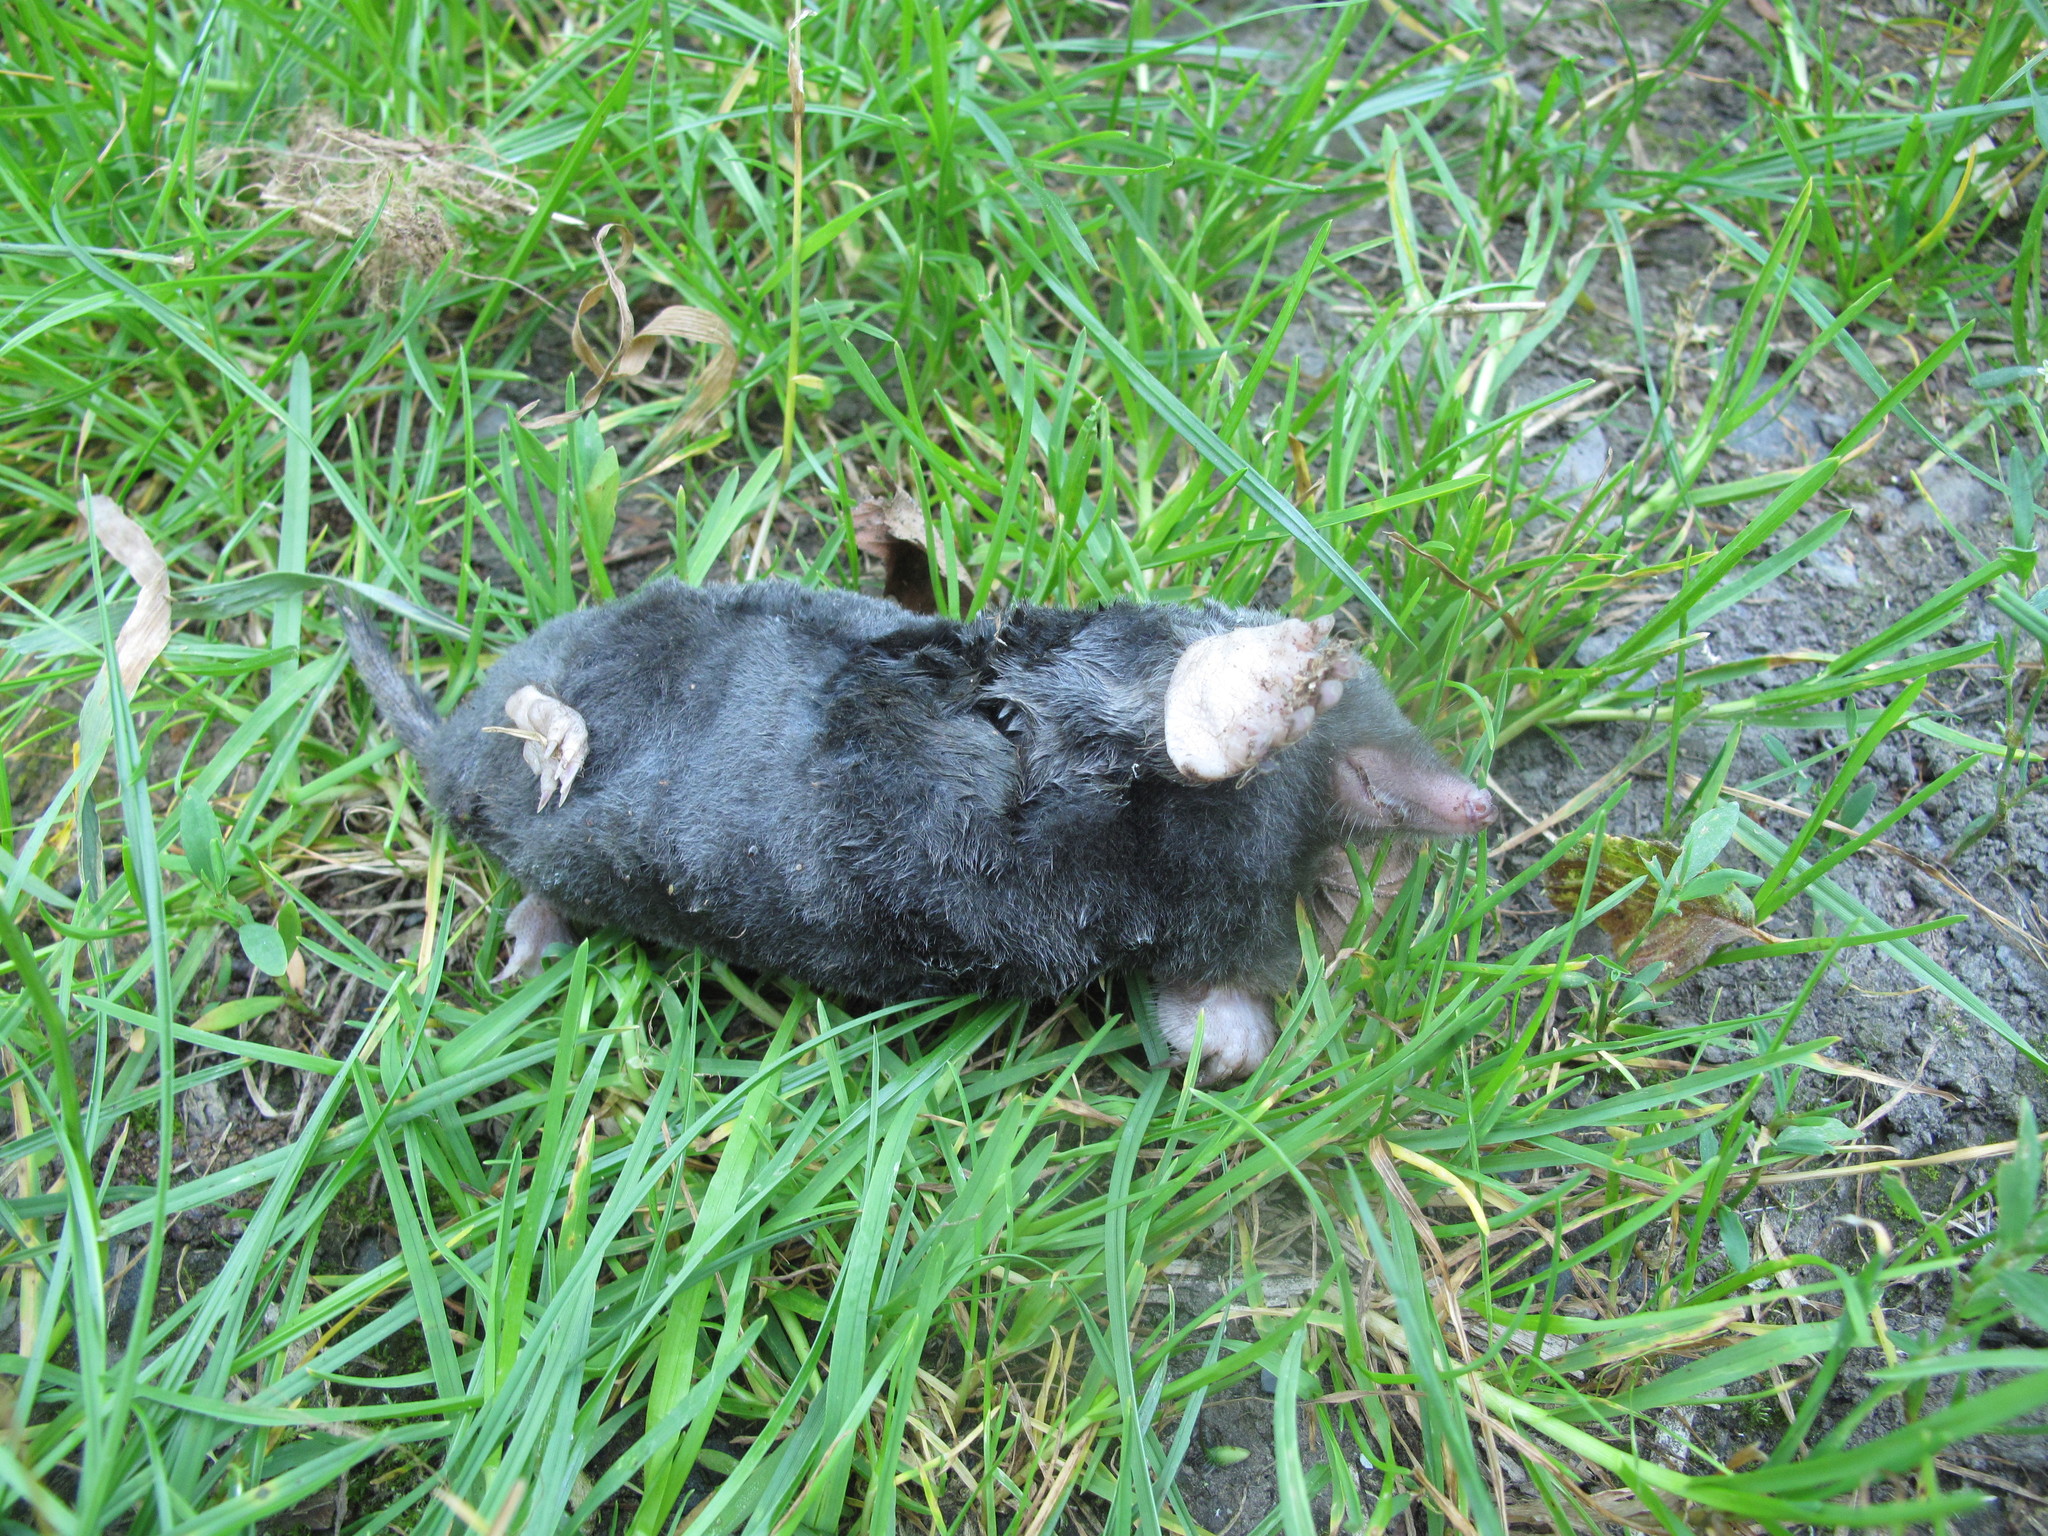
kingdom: Animalia
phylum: Chordata
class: Mammalia
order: Soricomorpha
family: Talpidae
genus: Talpa
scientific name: Talpa europaea
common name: European mole
